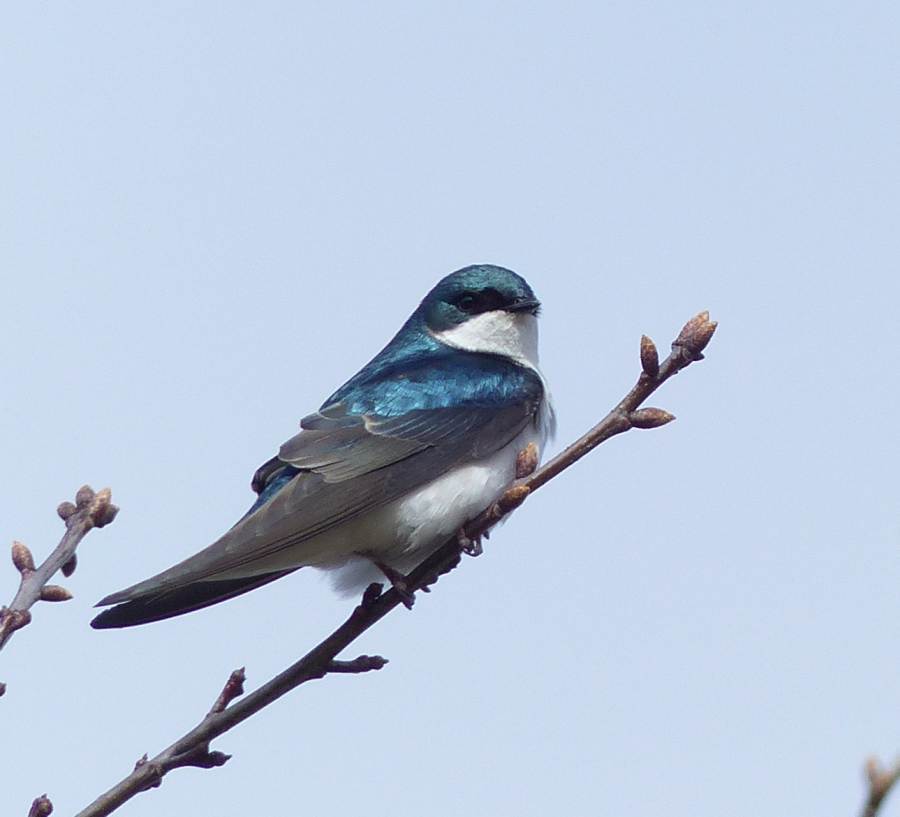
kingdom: Animalia
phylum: Chordata
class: Aves
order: Passeriformes
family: Hirundinidae
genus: Tachycineta
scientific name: Tachycineta bicolor
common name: Tree swallow
